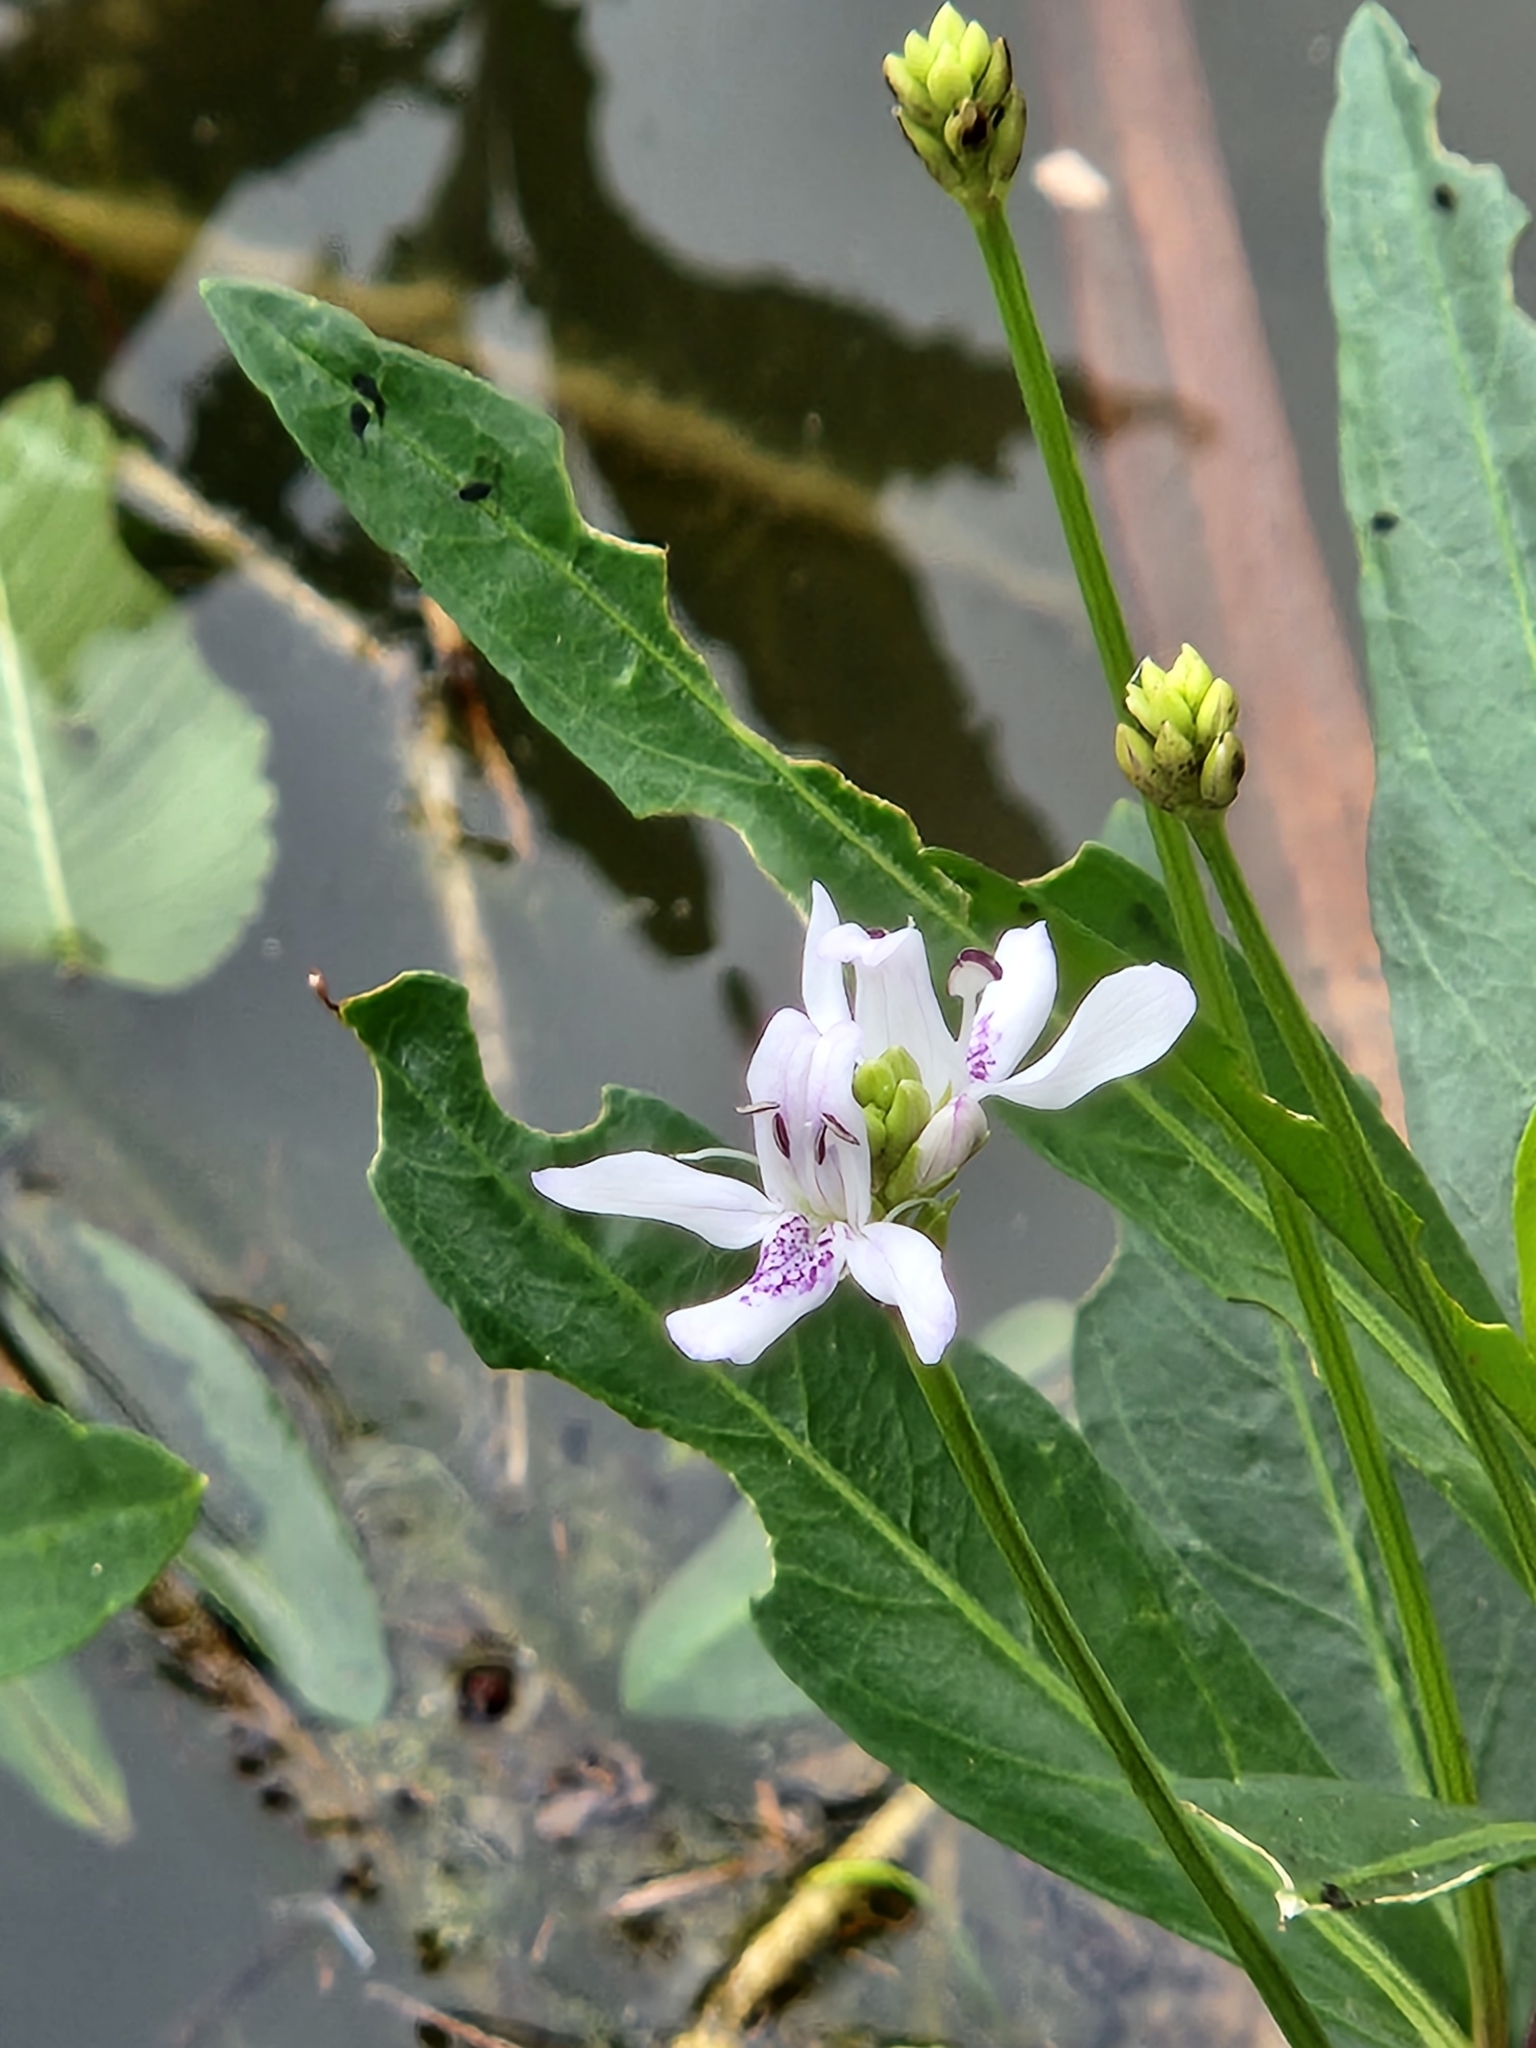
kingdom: Plantae
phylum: Tracheophyta
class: Magnoliopsida
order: Lamiales
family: Acanthaceae
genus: Dianthera
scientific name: Dianthera americana
